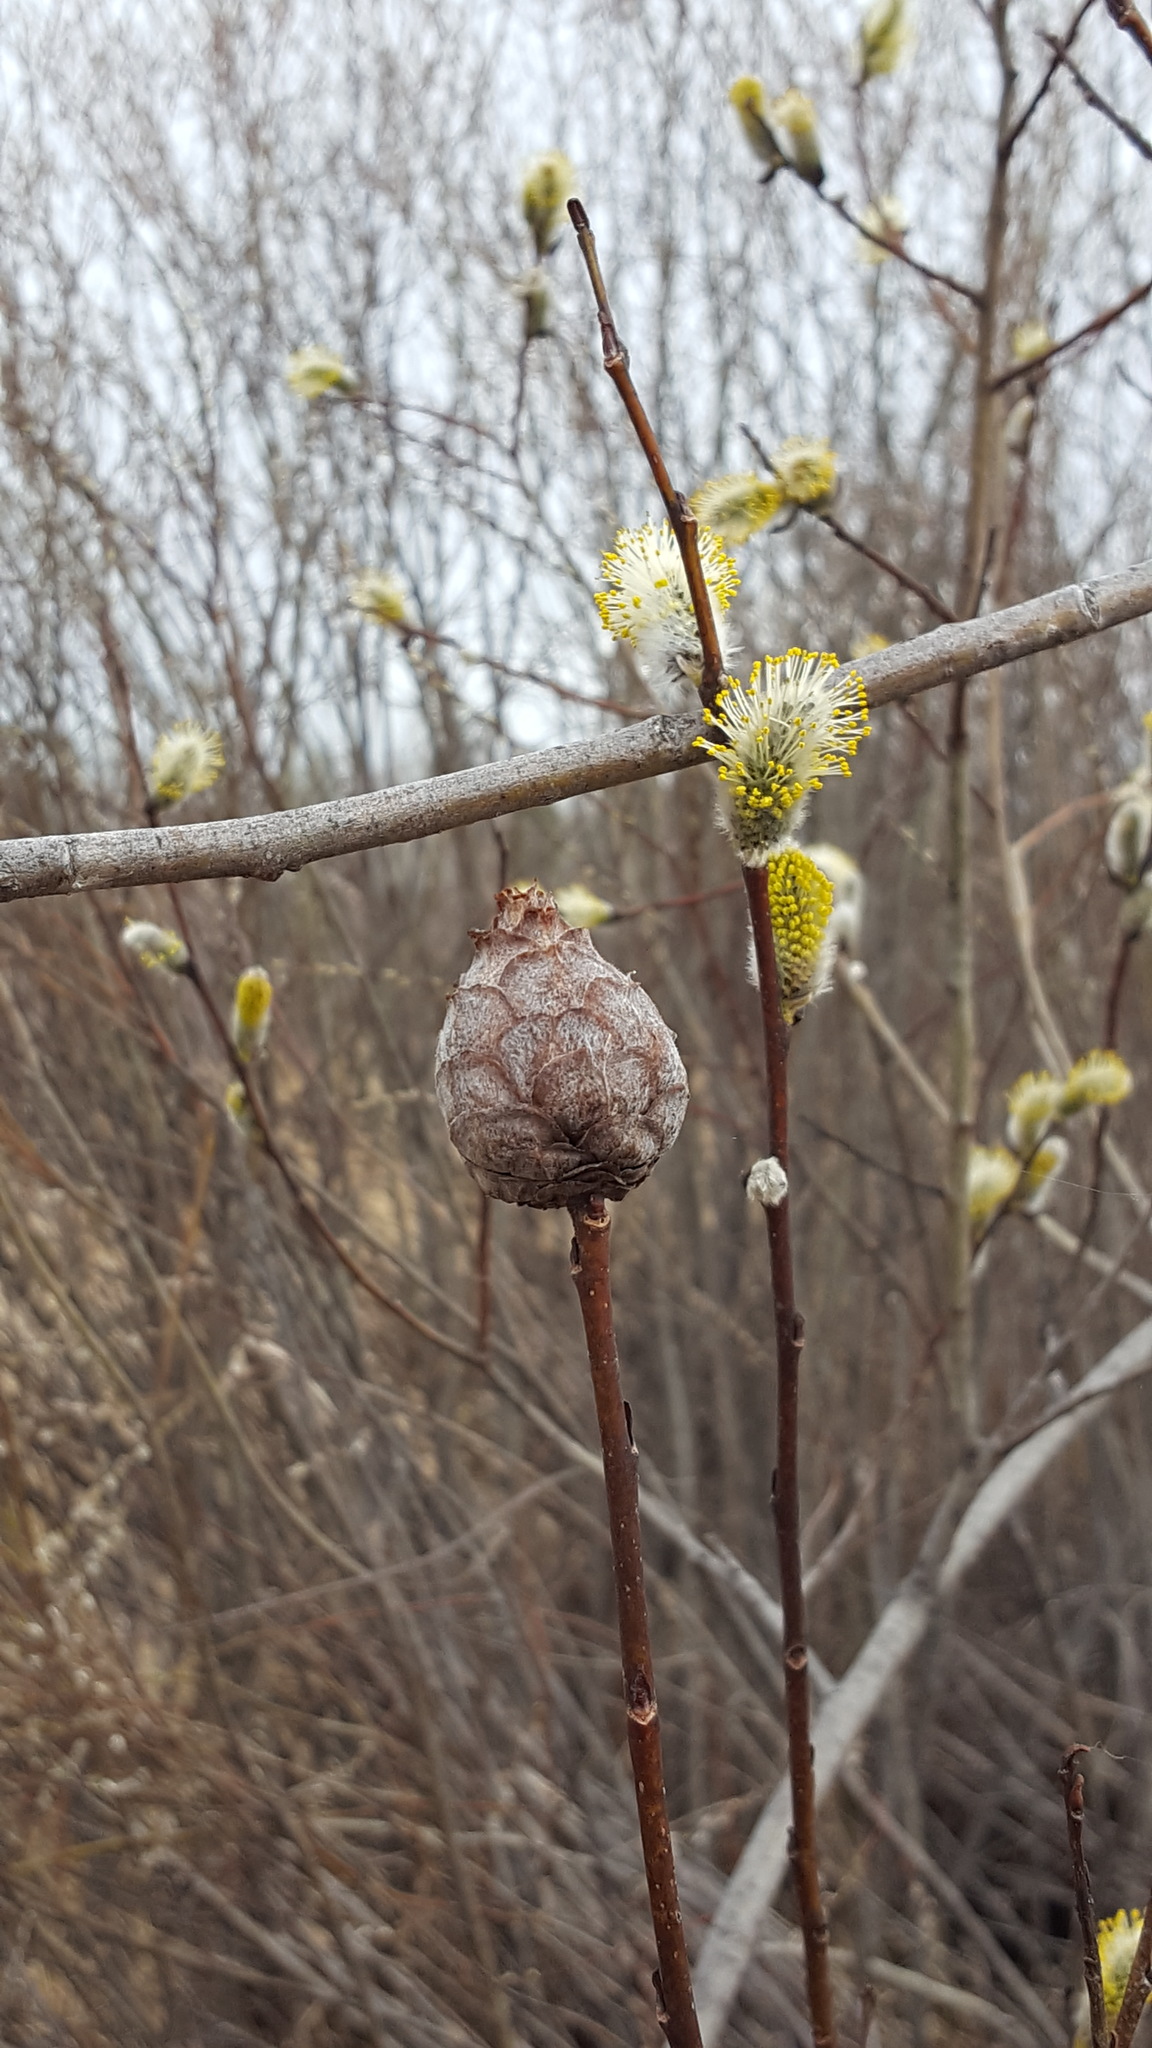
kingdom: Animalia
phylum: Arthropoda
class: Insecta
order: Diptera
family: Cecidomyiidae
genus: Rabdophaga
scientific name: Rabdophaga strobiloides
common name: Willow pinecone gall midge
